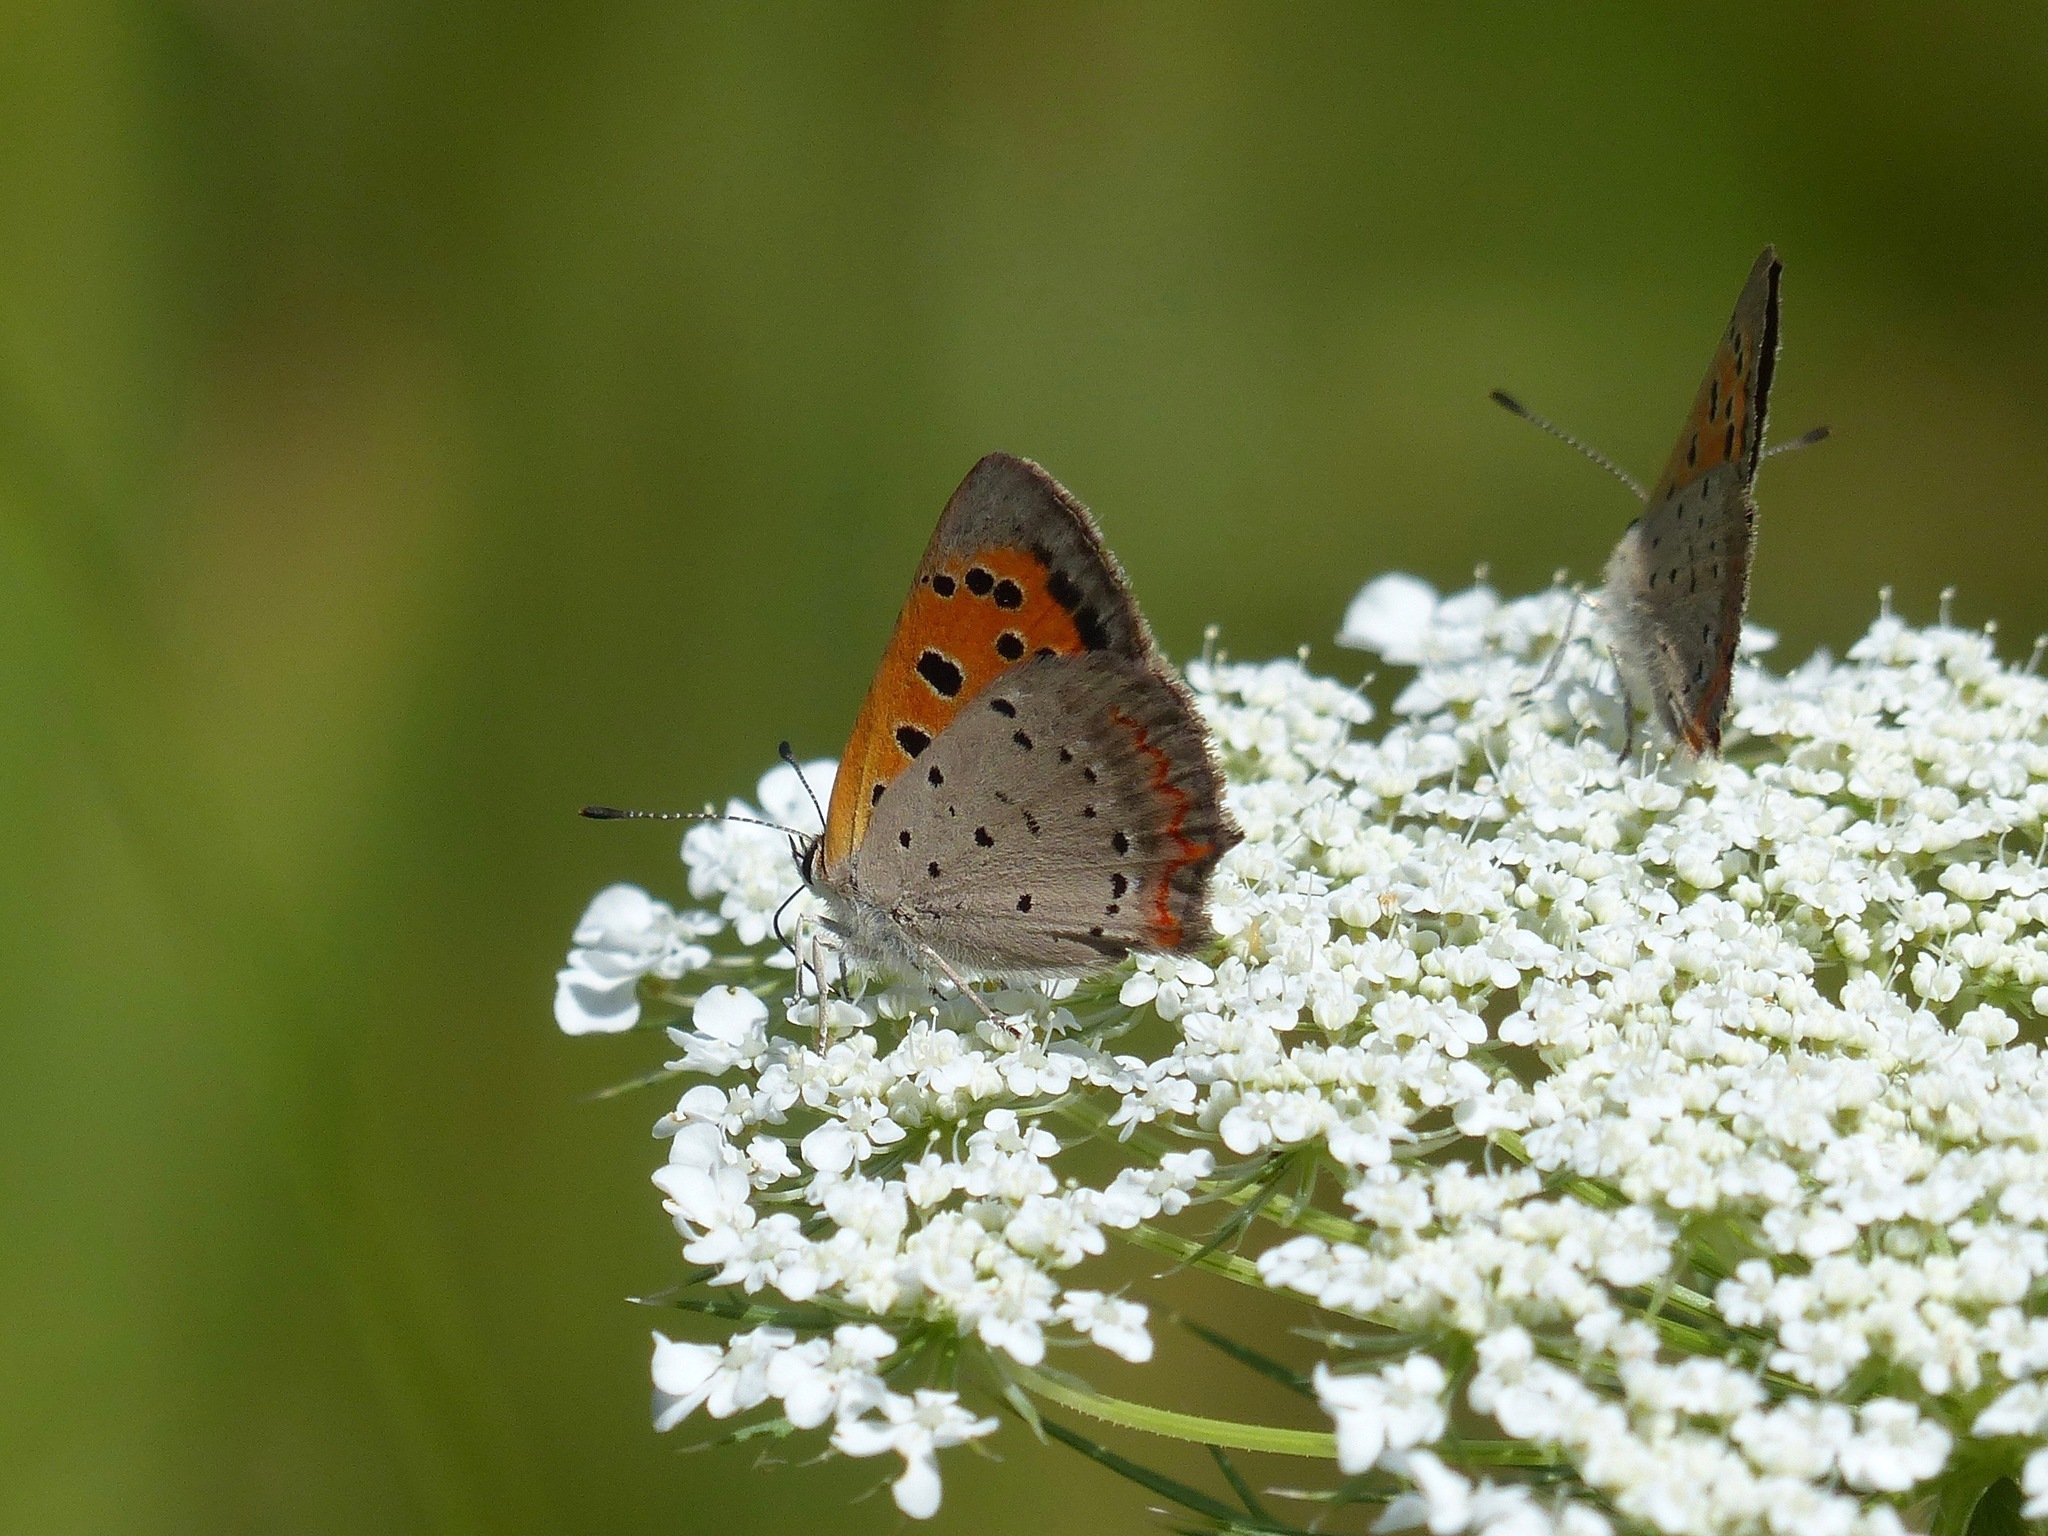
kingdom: Animalia
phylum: Arthropoda
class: Insecta
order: Lepidoptera
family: Lycaenidae
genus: Lycaena
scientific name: Lycaena hypophlaeas
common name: American copper
